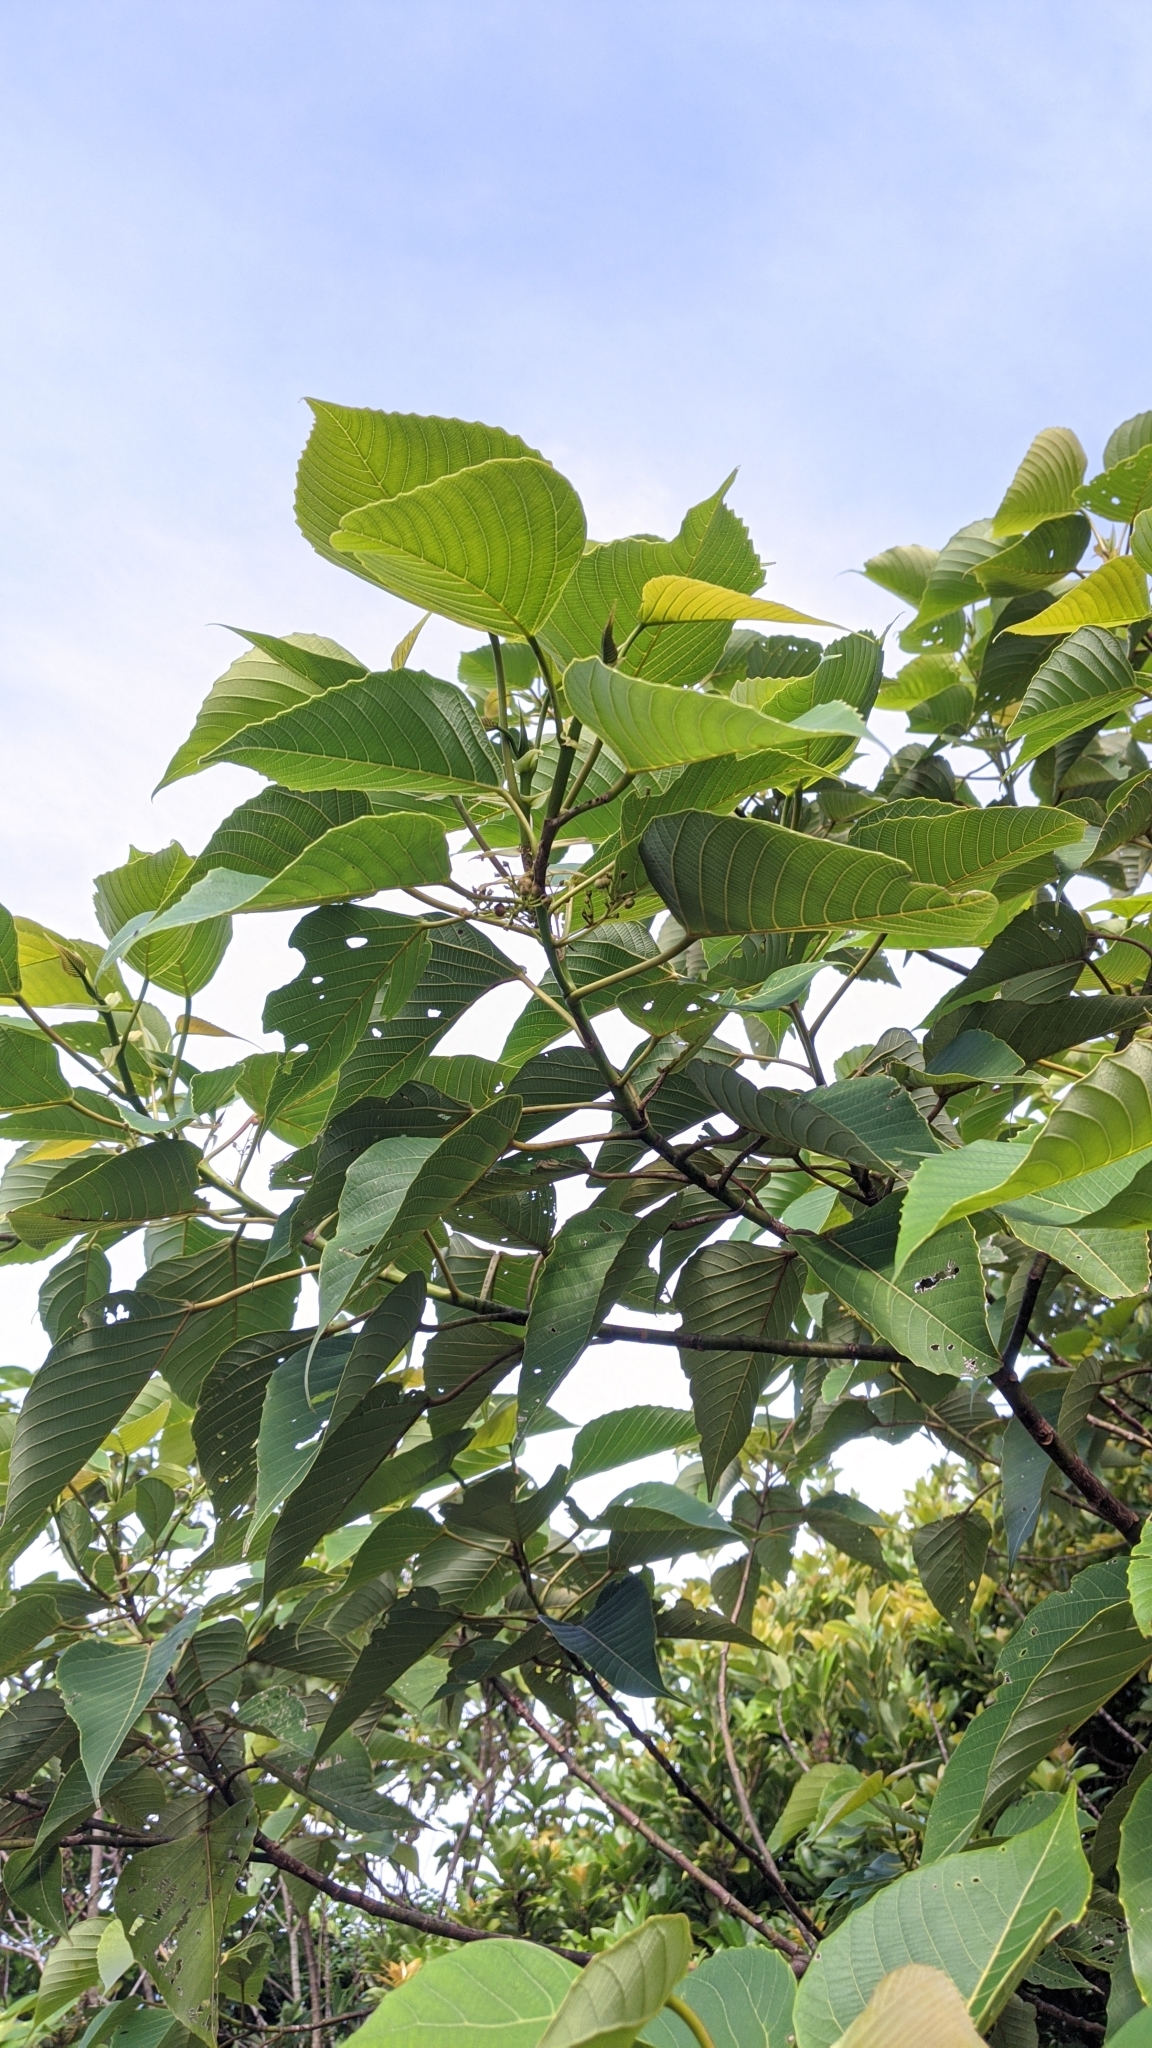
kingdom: Plantae
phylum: Tracheophyta
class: Magnoliopsida
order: Malpighiales
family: Euphorbiaceae
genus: Macaranga
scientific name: Macaranga sinensis
